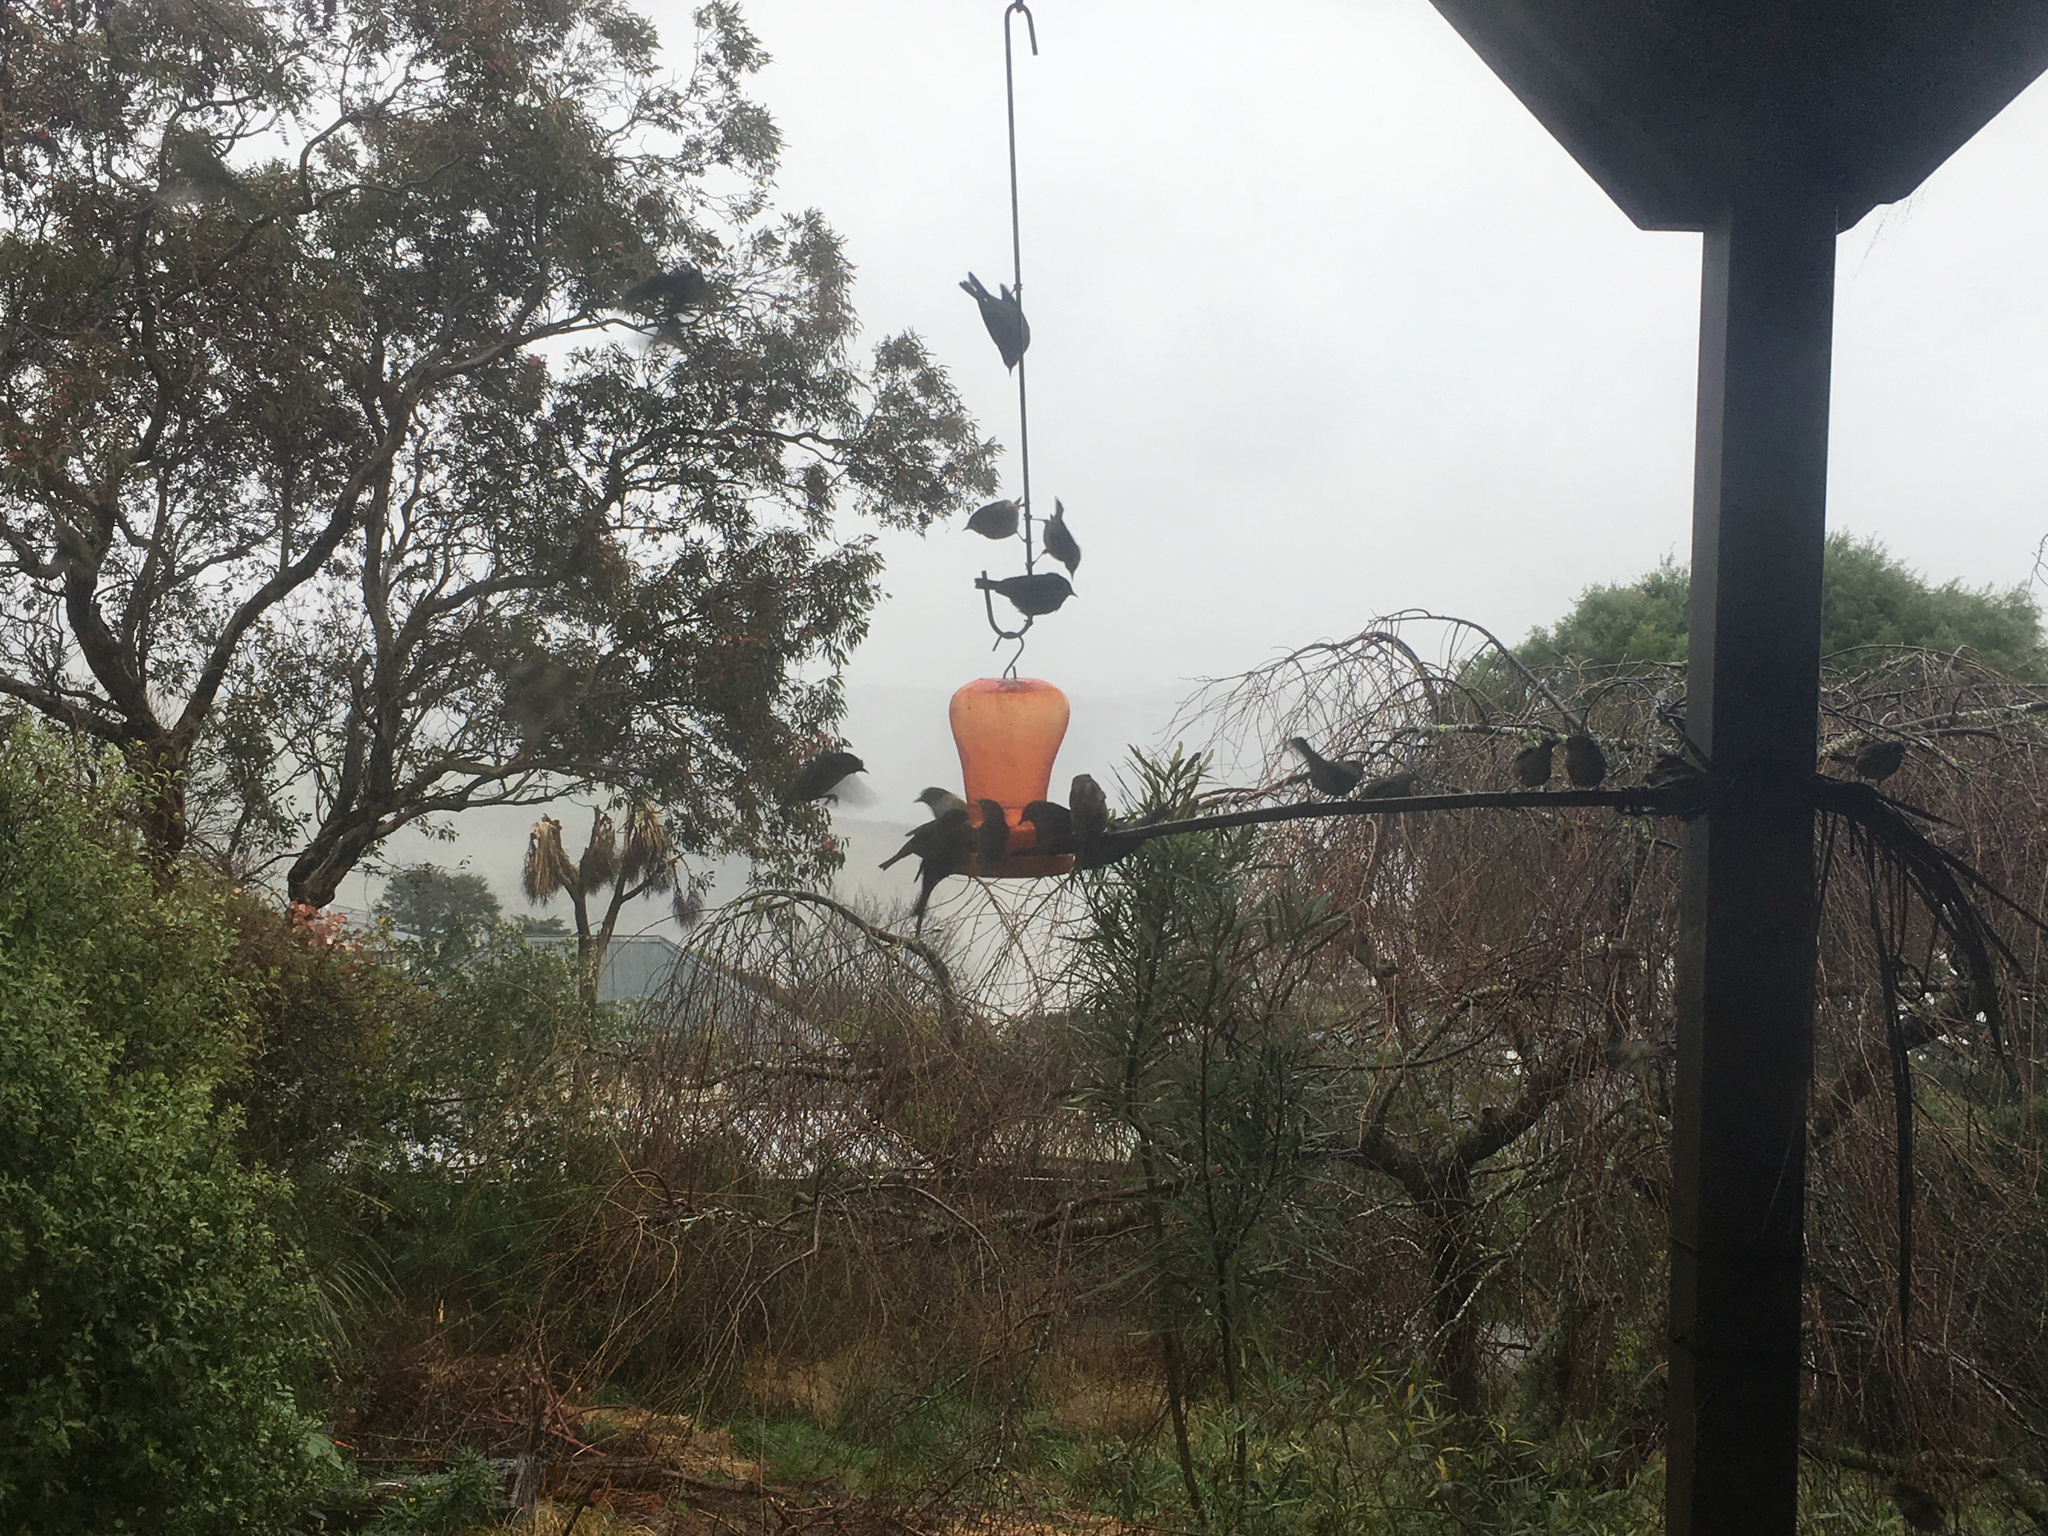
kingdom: Animalia
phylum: Chordata
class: Aves
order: Passeriformes
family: Zosteropidae
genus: Zosterops
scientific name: Zosterops lateralis
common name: Silvereye
